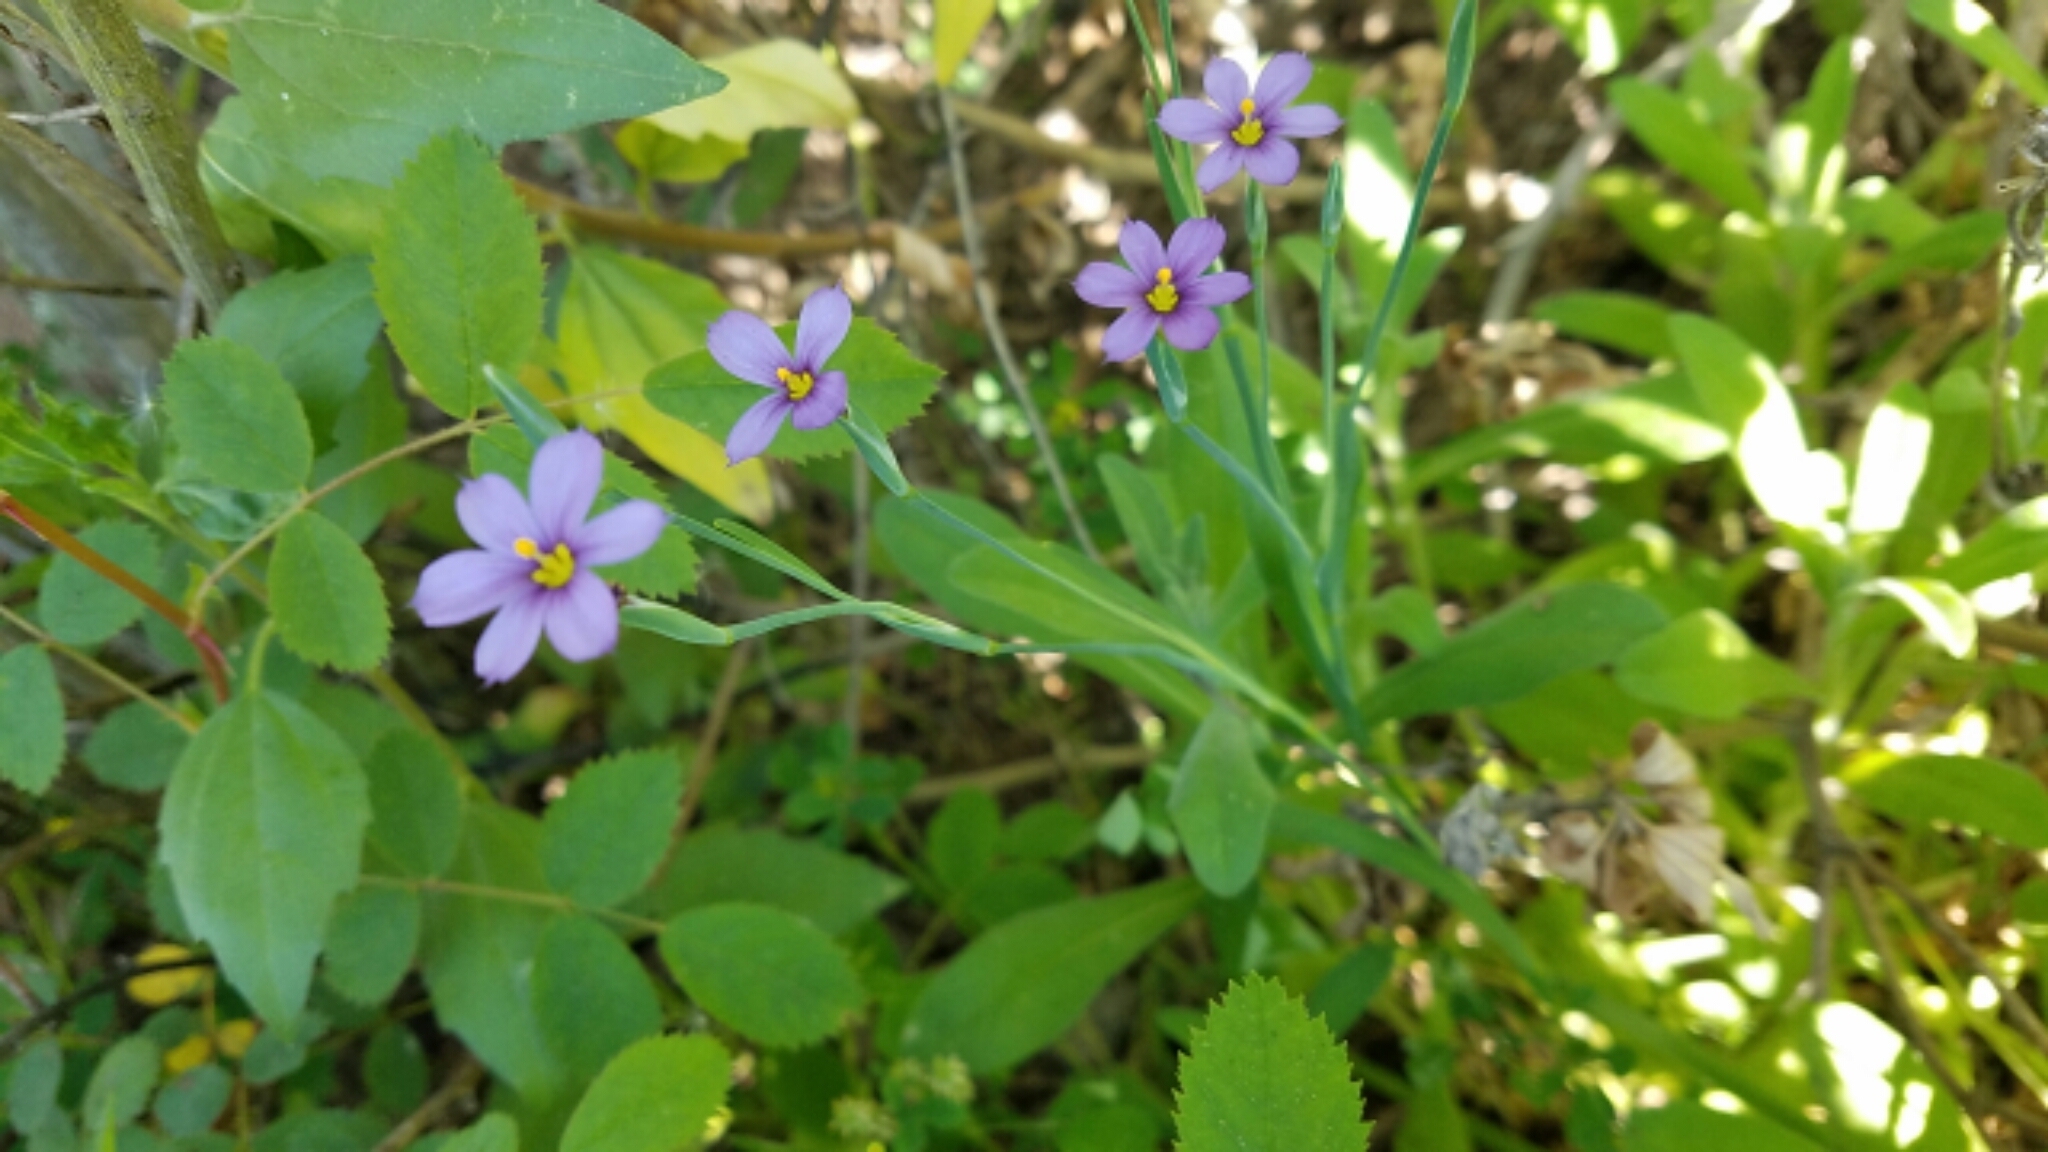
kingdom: Plantae
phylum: Tracheophyta
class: Liliopsida
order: Asparagales
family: Iridaceae
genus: Sisyrinchium
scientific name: Sisyrinchium bellum
